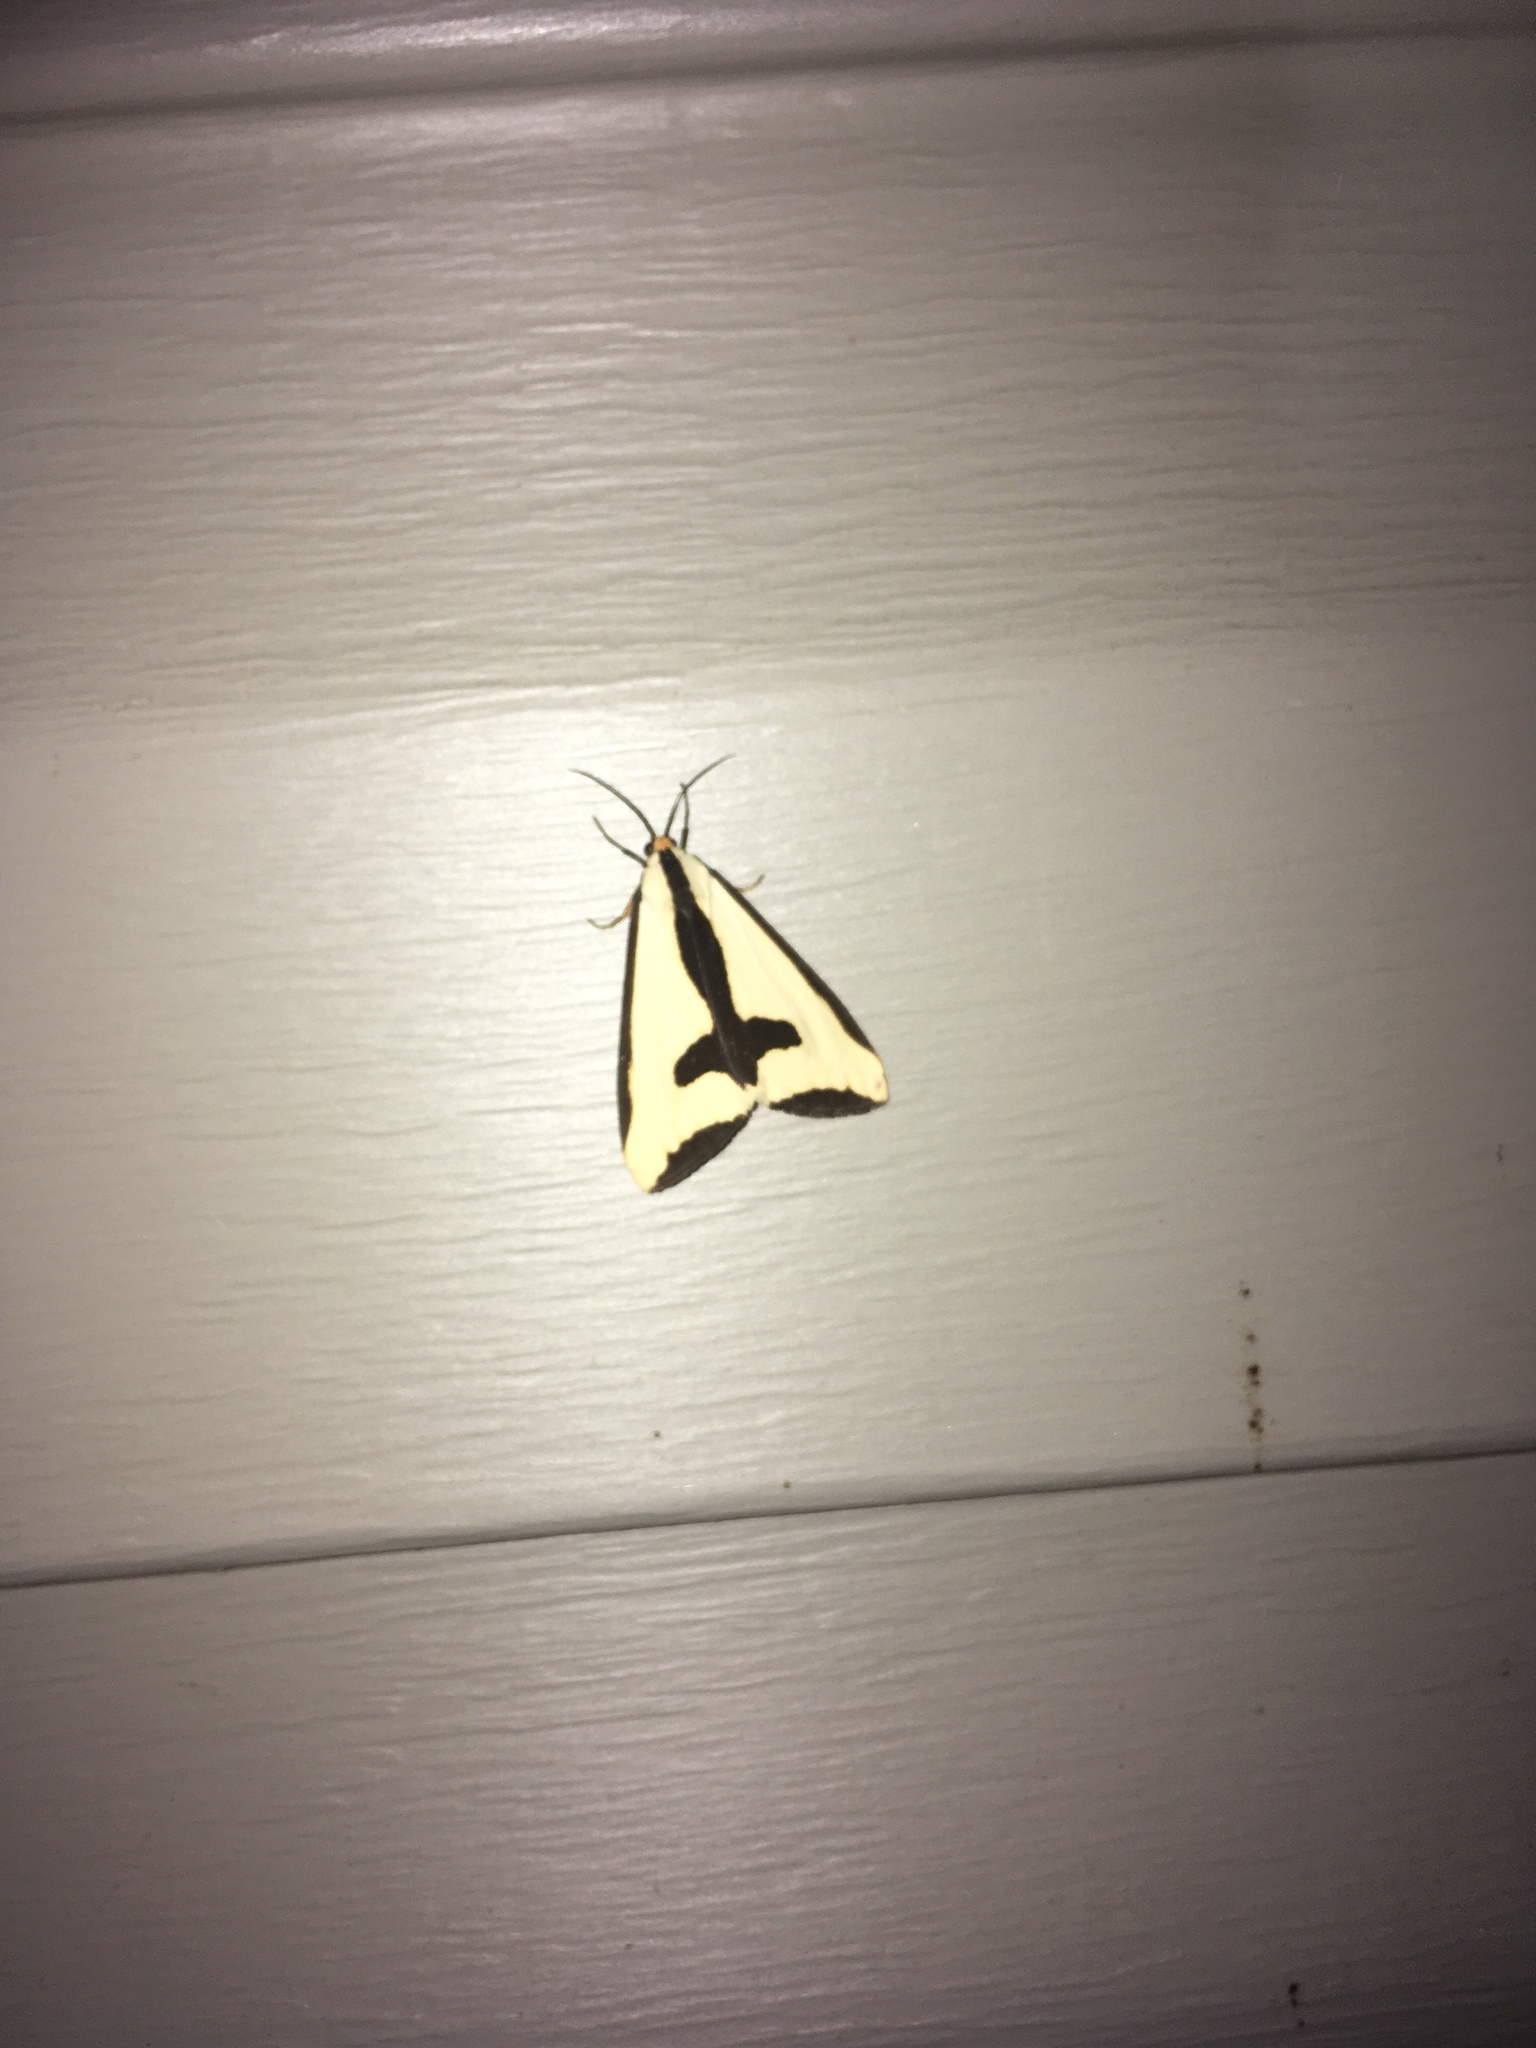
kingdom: Animalia
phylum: Arthropoda
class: Insecta
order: Lepidoptera
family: Erebidae
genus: Haploa
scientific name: Haploa clymene
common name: Clymene moth
